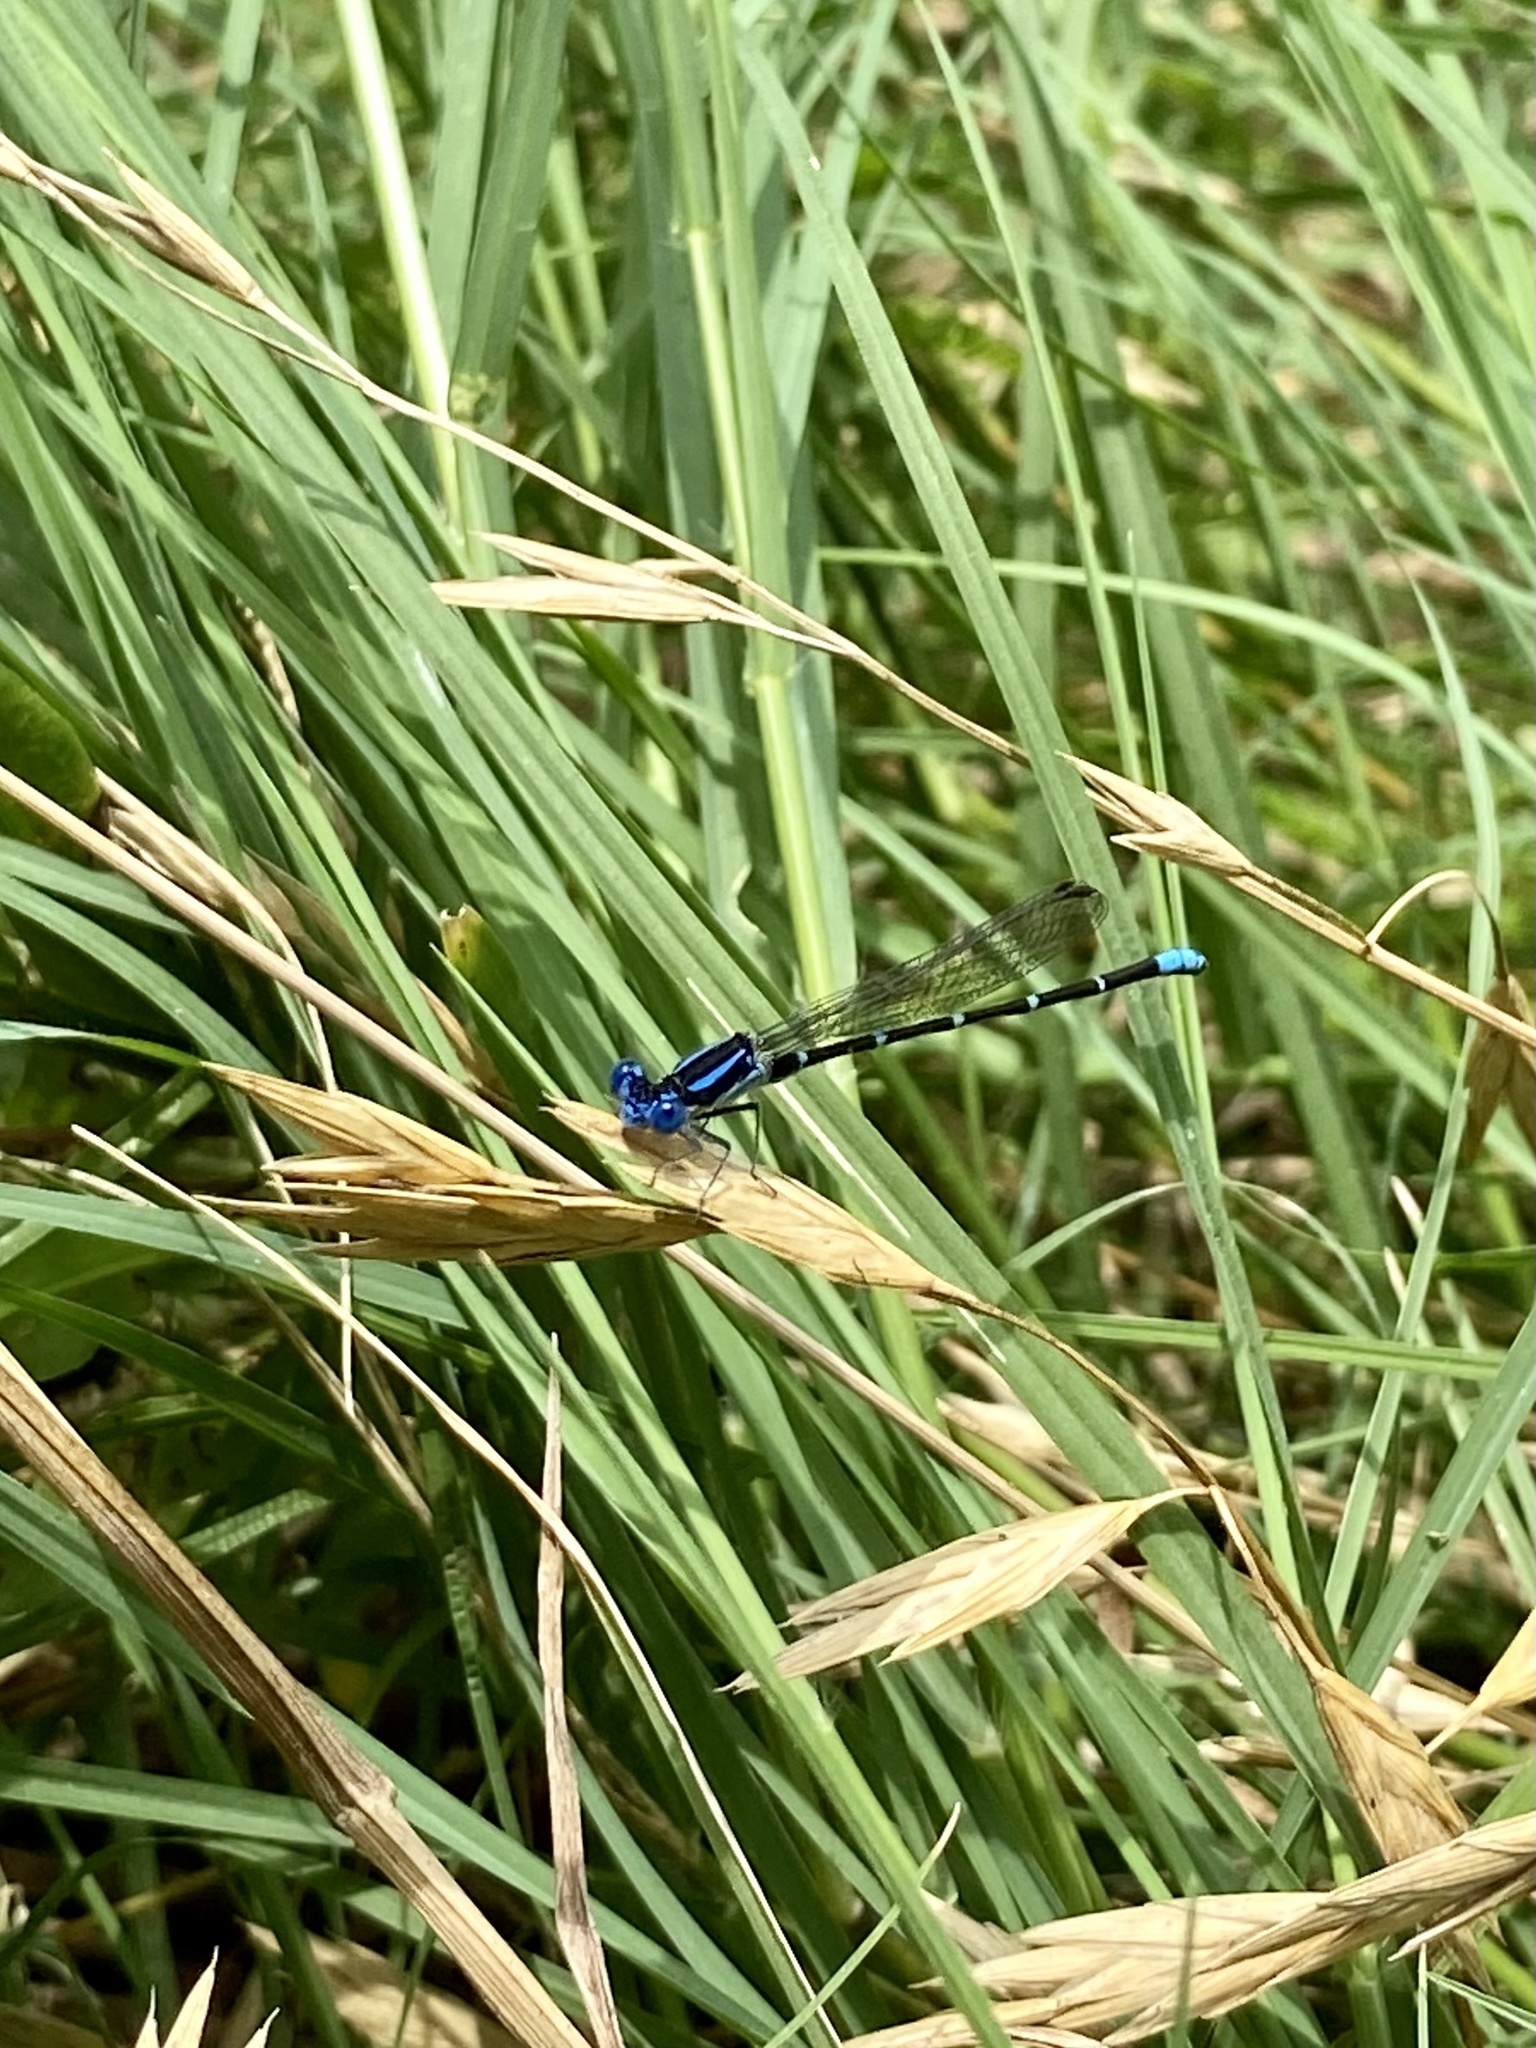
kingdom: Animalia
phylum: Arthropoda
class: Insecta
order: Odonata
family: Coenagrionidae
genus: Argia
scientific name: Argia sedula
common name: Blue-ringed dancer
